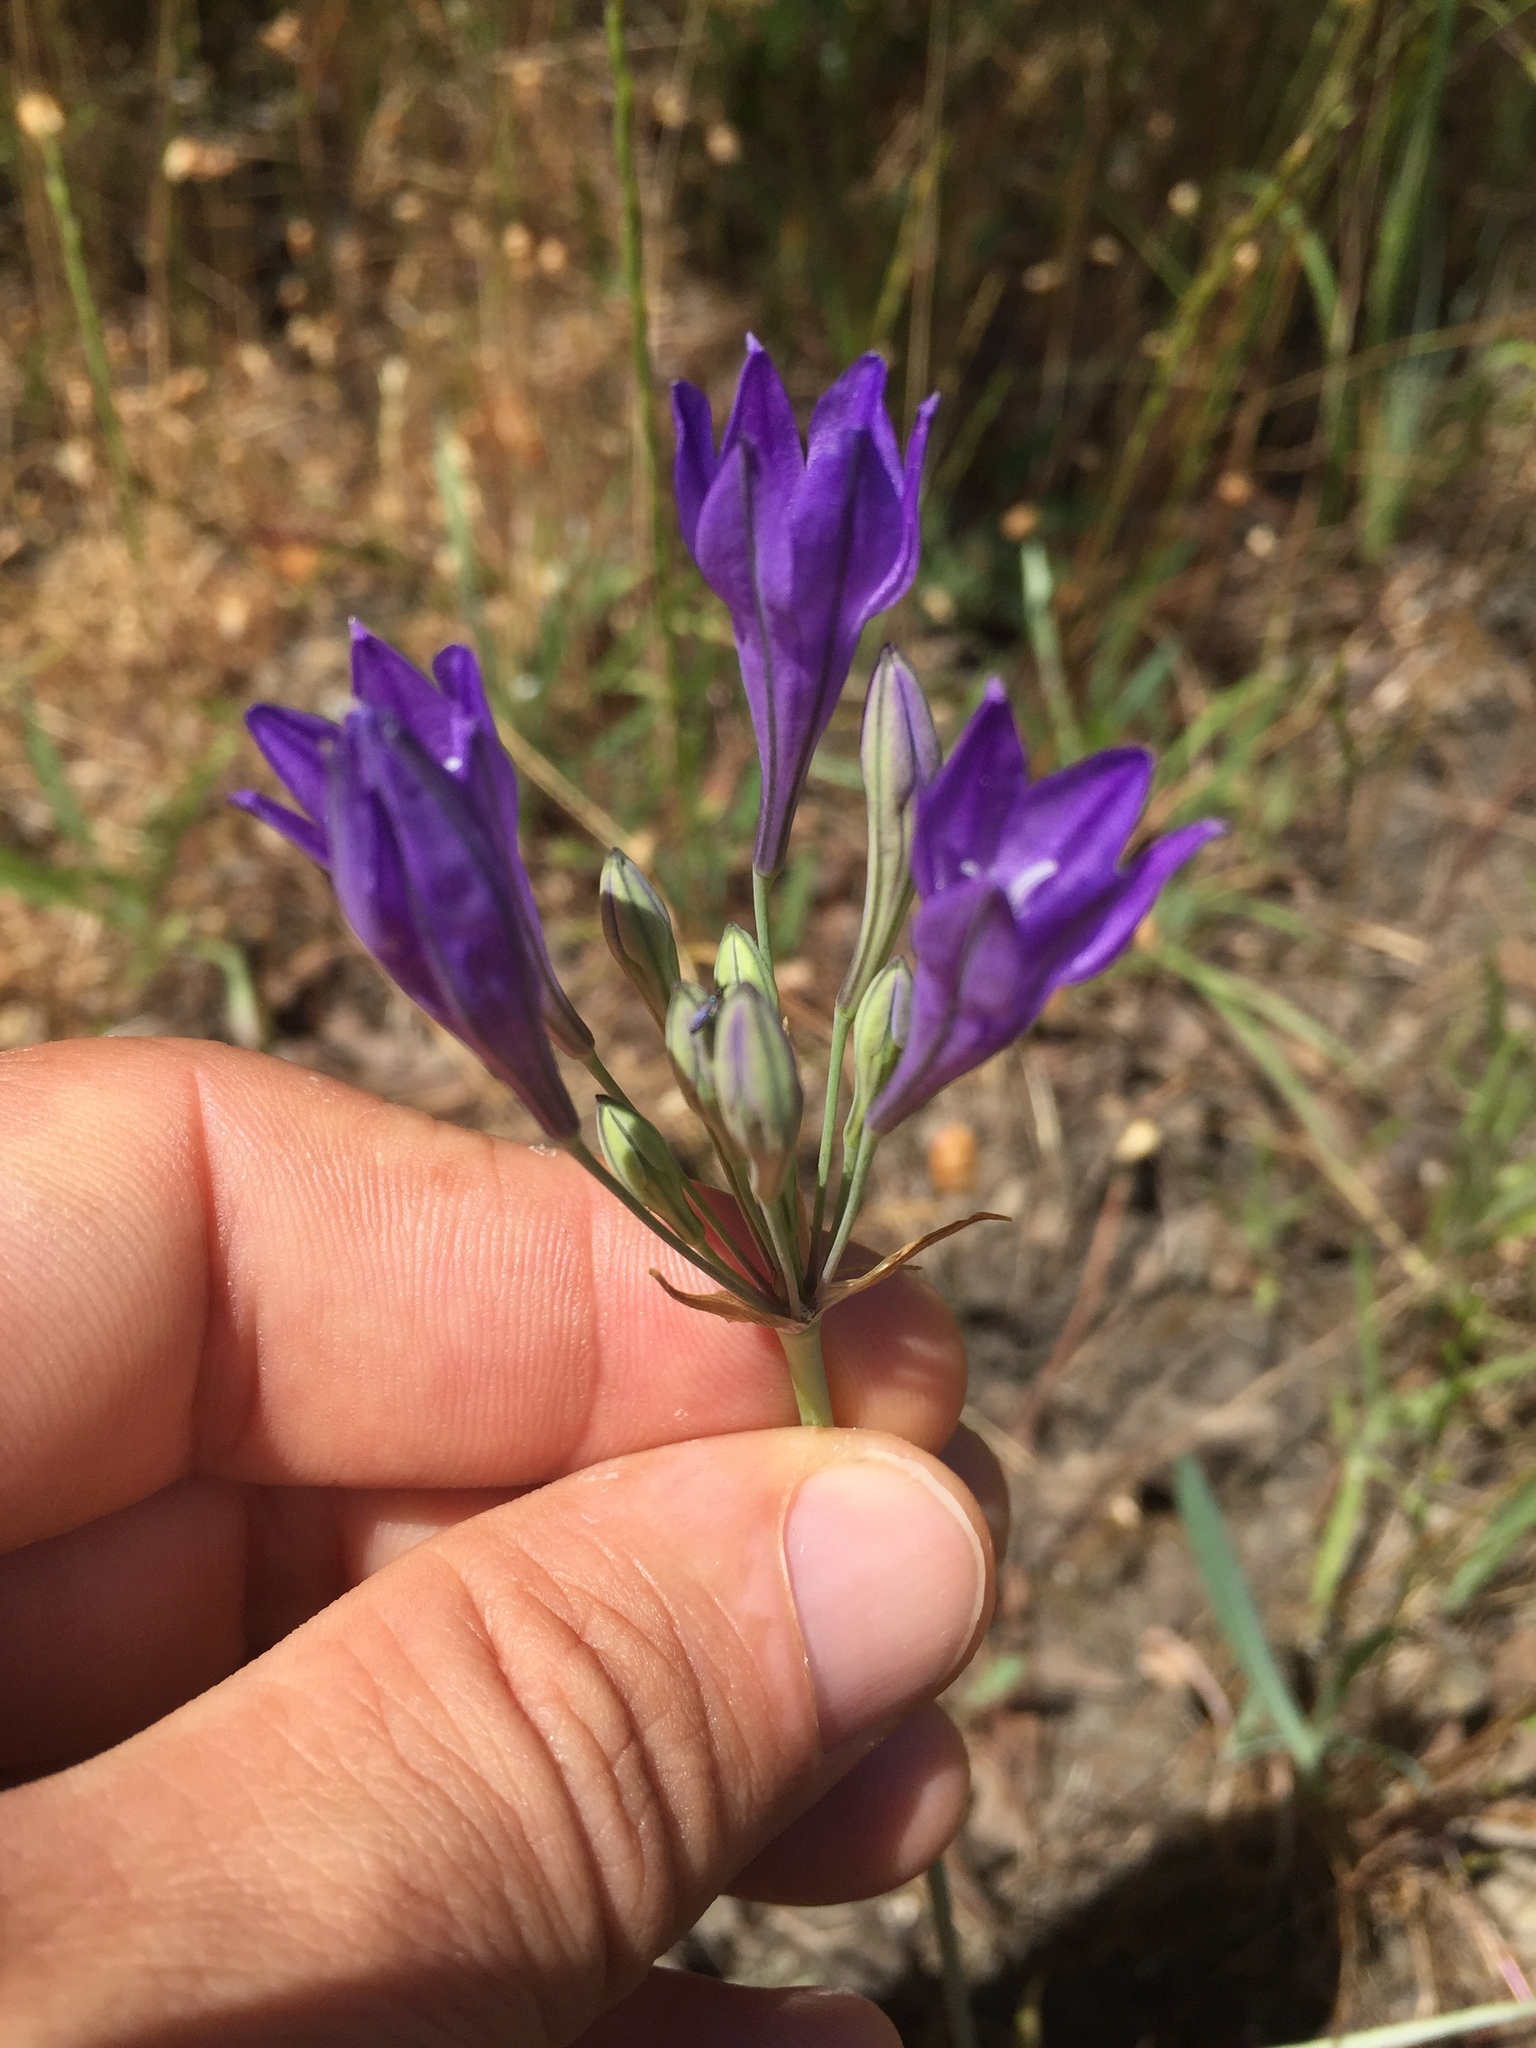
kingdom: Plantae
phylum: Tracheophyta
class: Liliopsida
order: Asparagales
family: Asparagaceae
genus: Triteleia
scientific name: Triteleia laxa
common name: Triplet-lily
